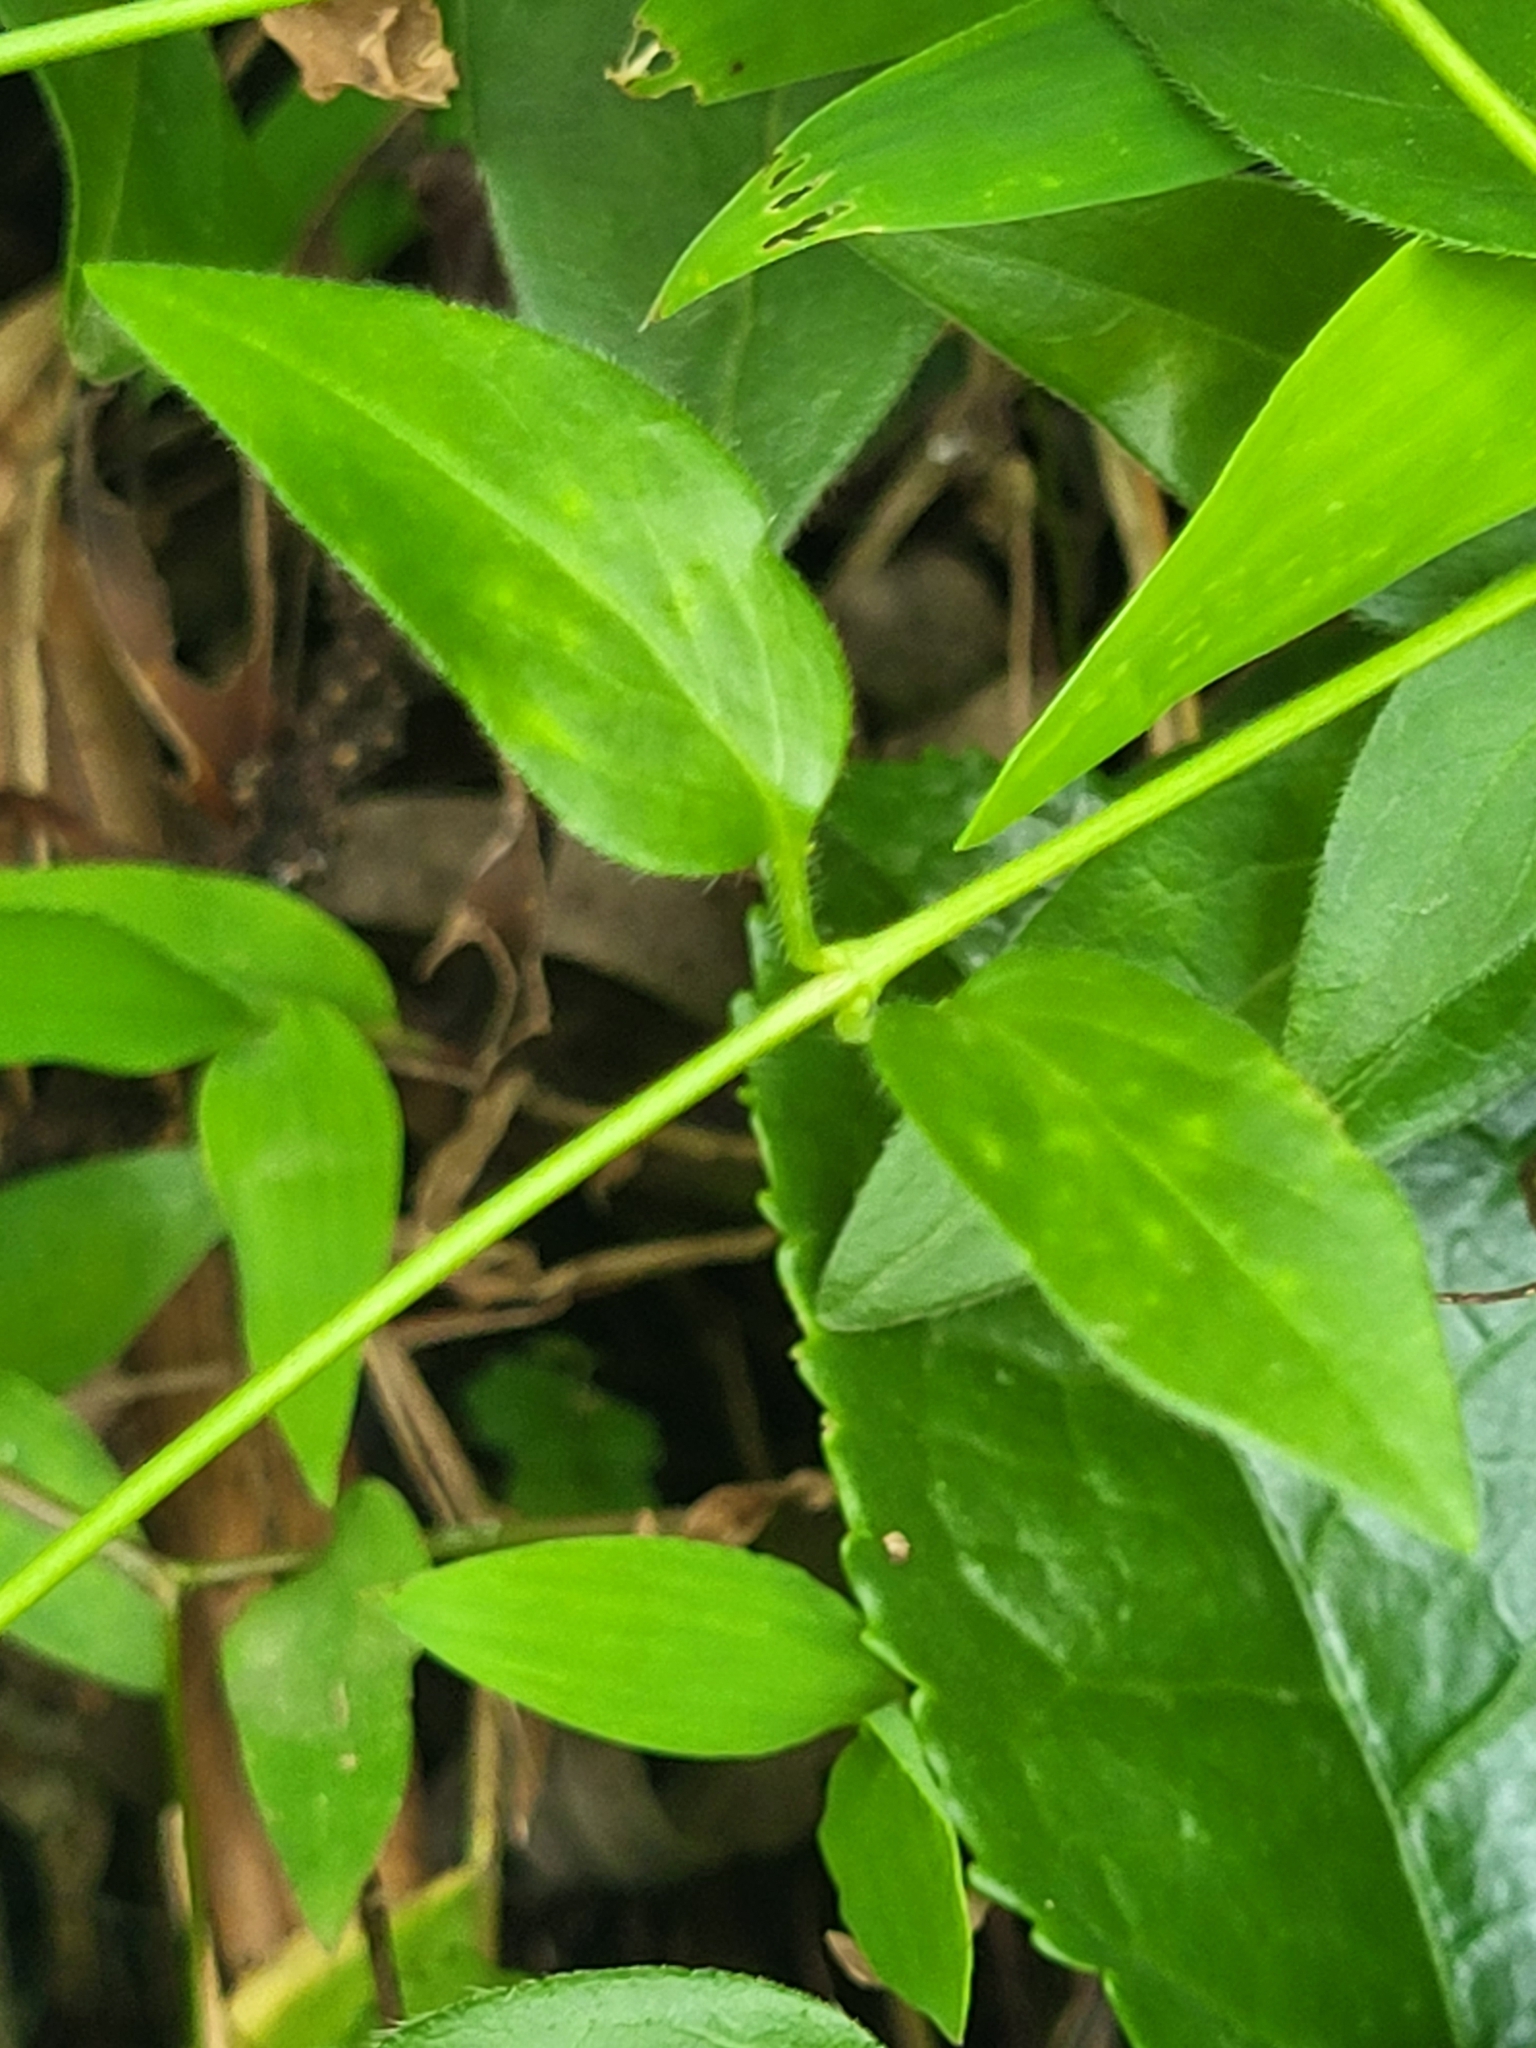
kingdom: Plantae
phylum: Tracheophyta
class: Magnoliopsida
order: Gentianales
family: Apocynaceae
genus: Vinca
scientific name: Vinca herbacea
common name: Herbaceous periwinkle
